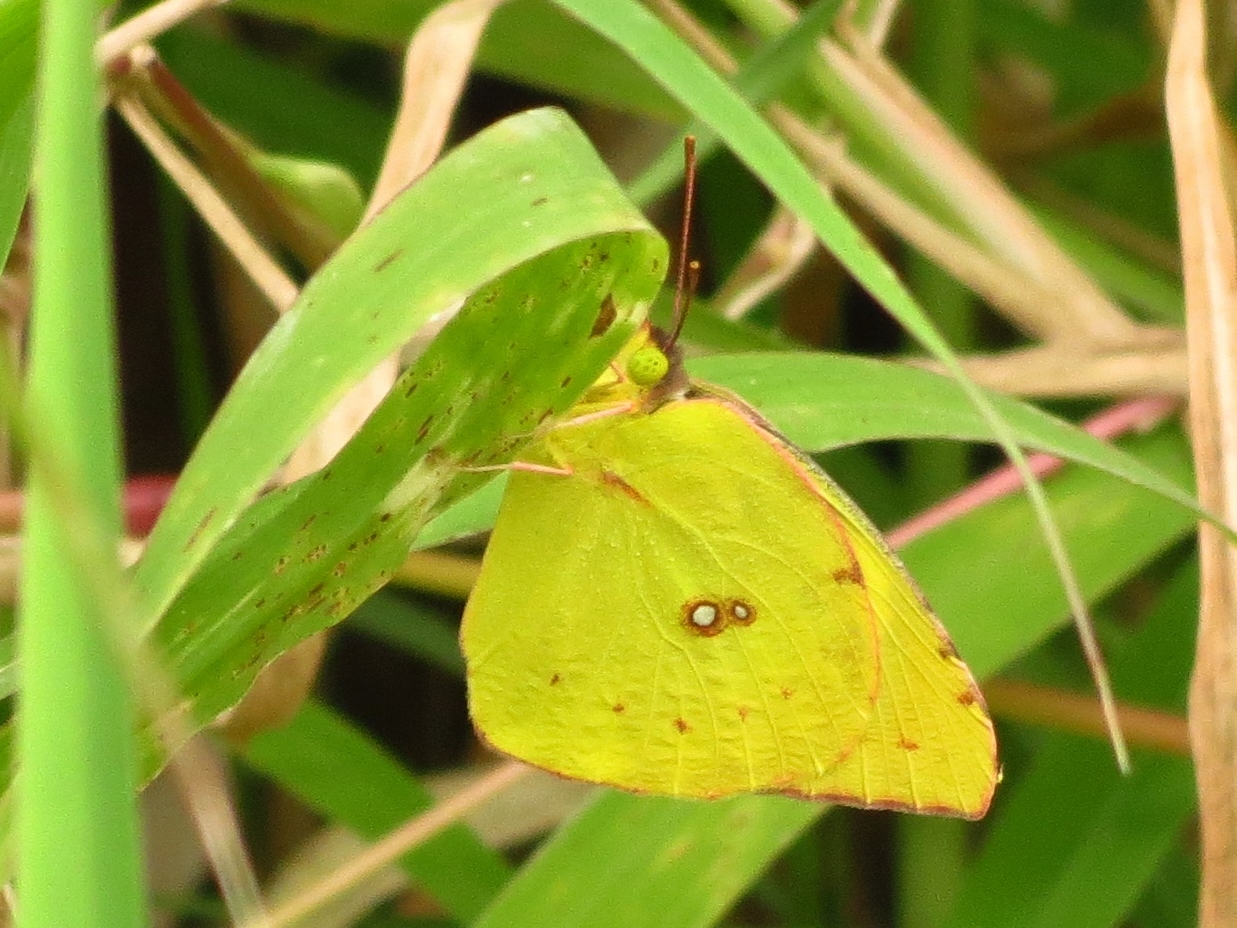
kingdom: Animalia
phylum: Arthropoda
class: Insecta
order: Lepidoptera
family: Pieridae
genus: Zerene
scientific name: Zerene cesonia
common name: Southern dogface
